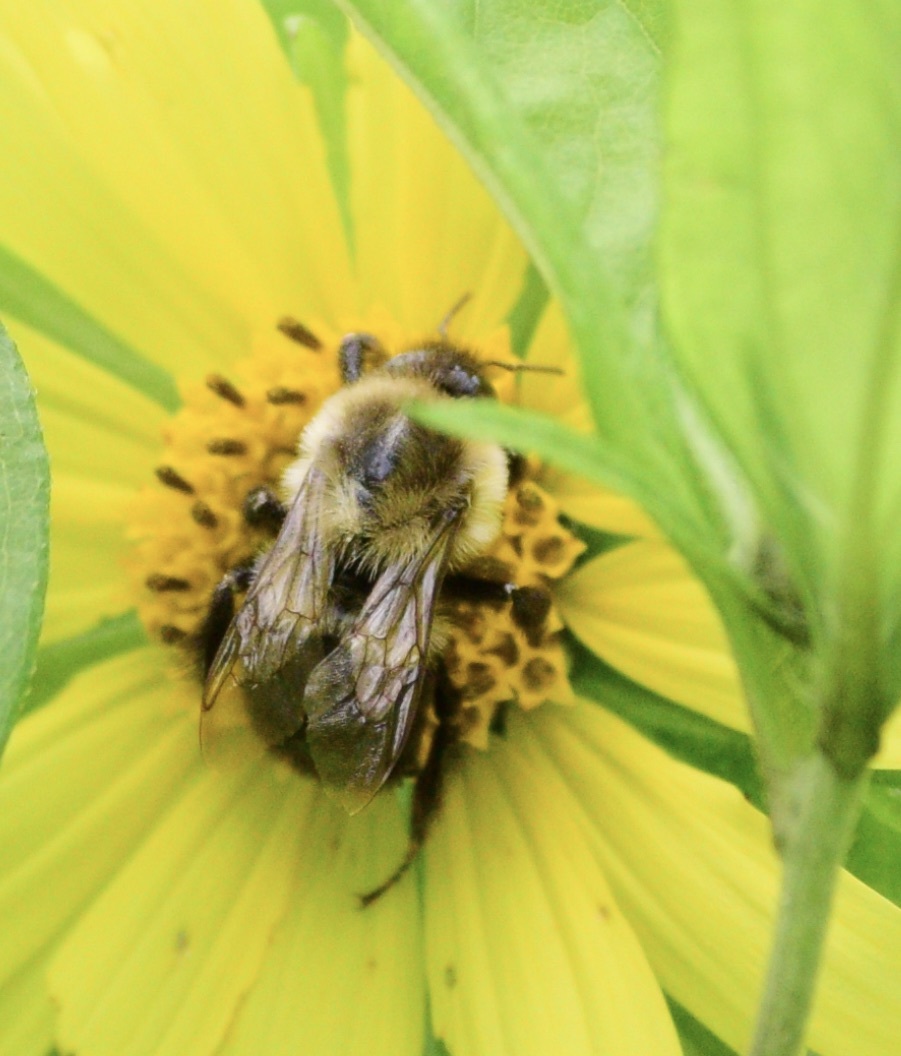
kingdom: Animalia
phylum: Arthropoda
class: Insecta
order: Hymenoptera
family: Apidae
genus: Bombus
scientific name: Bombus impatiens
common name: Common eastern bumble bee
